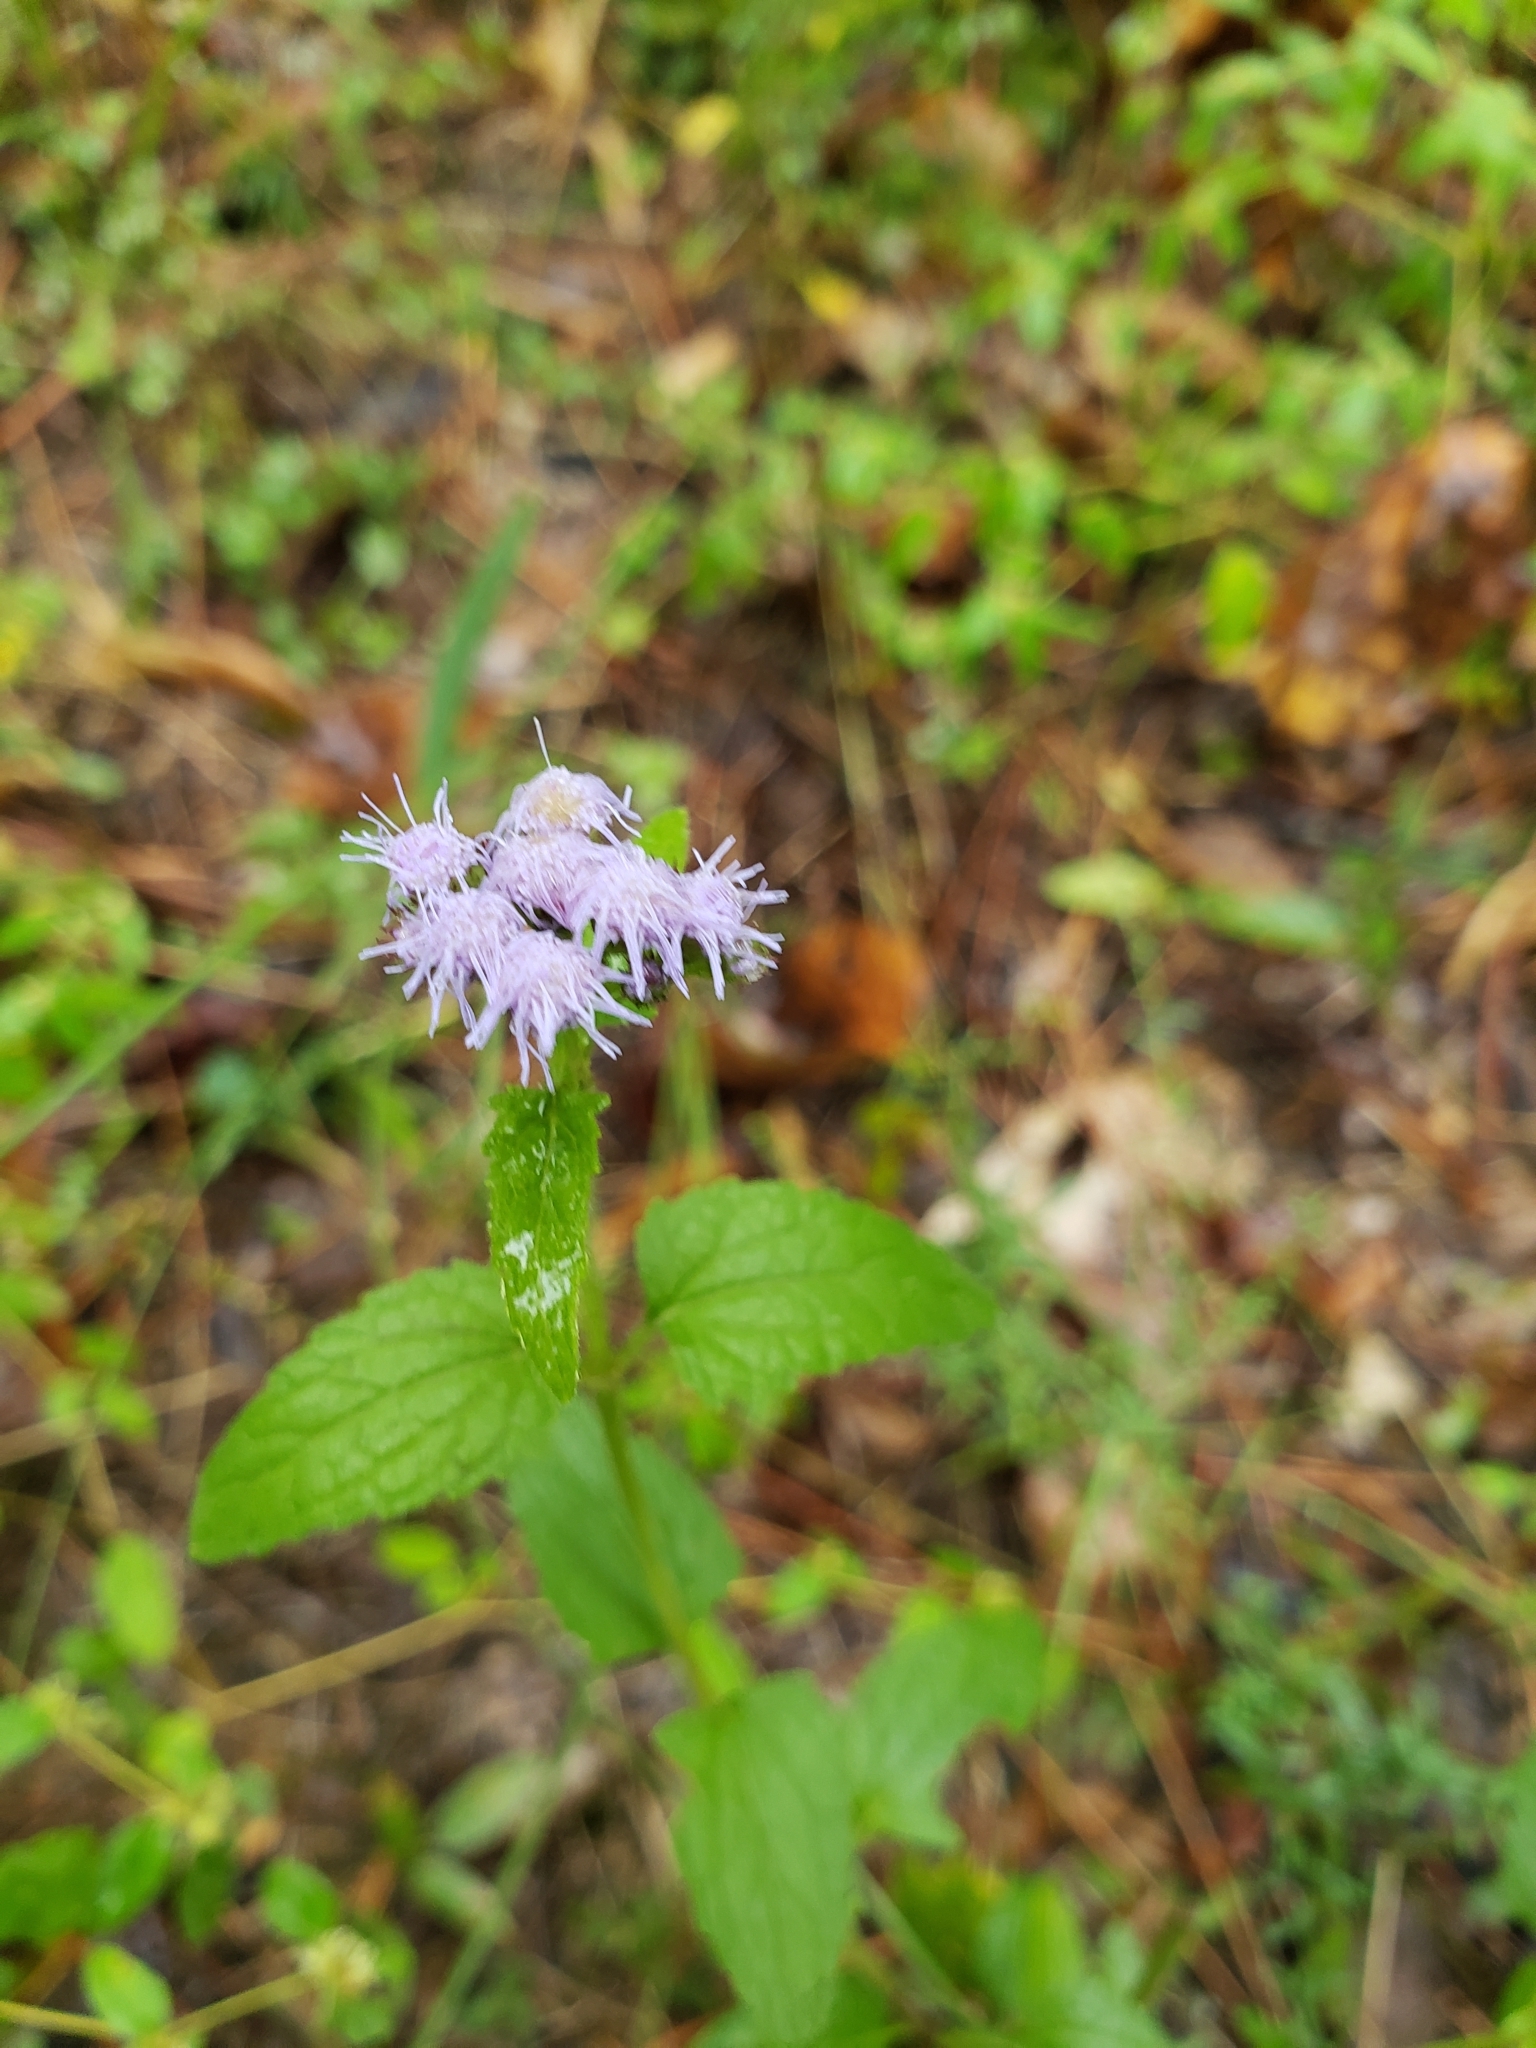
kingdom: Plantae
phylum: Tracheophyta
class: Magnoliopsida
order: Asterales
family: Asteraceae
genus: Conoclinium
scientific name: Conoclinium coelestinum
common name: Blue mistflower
